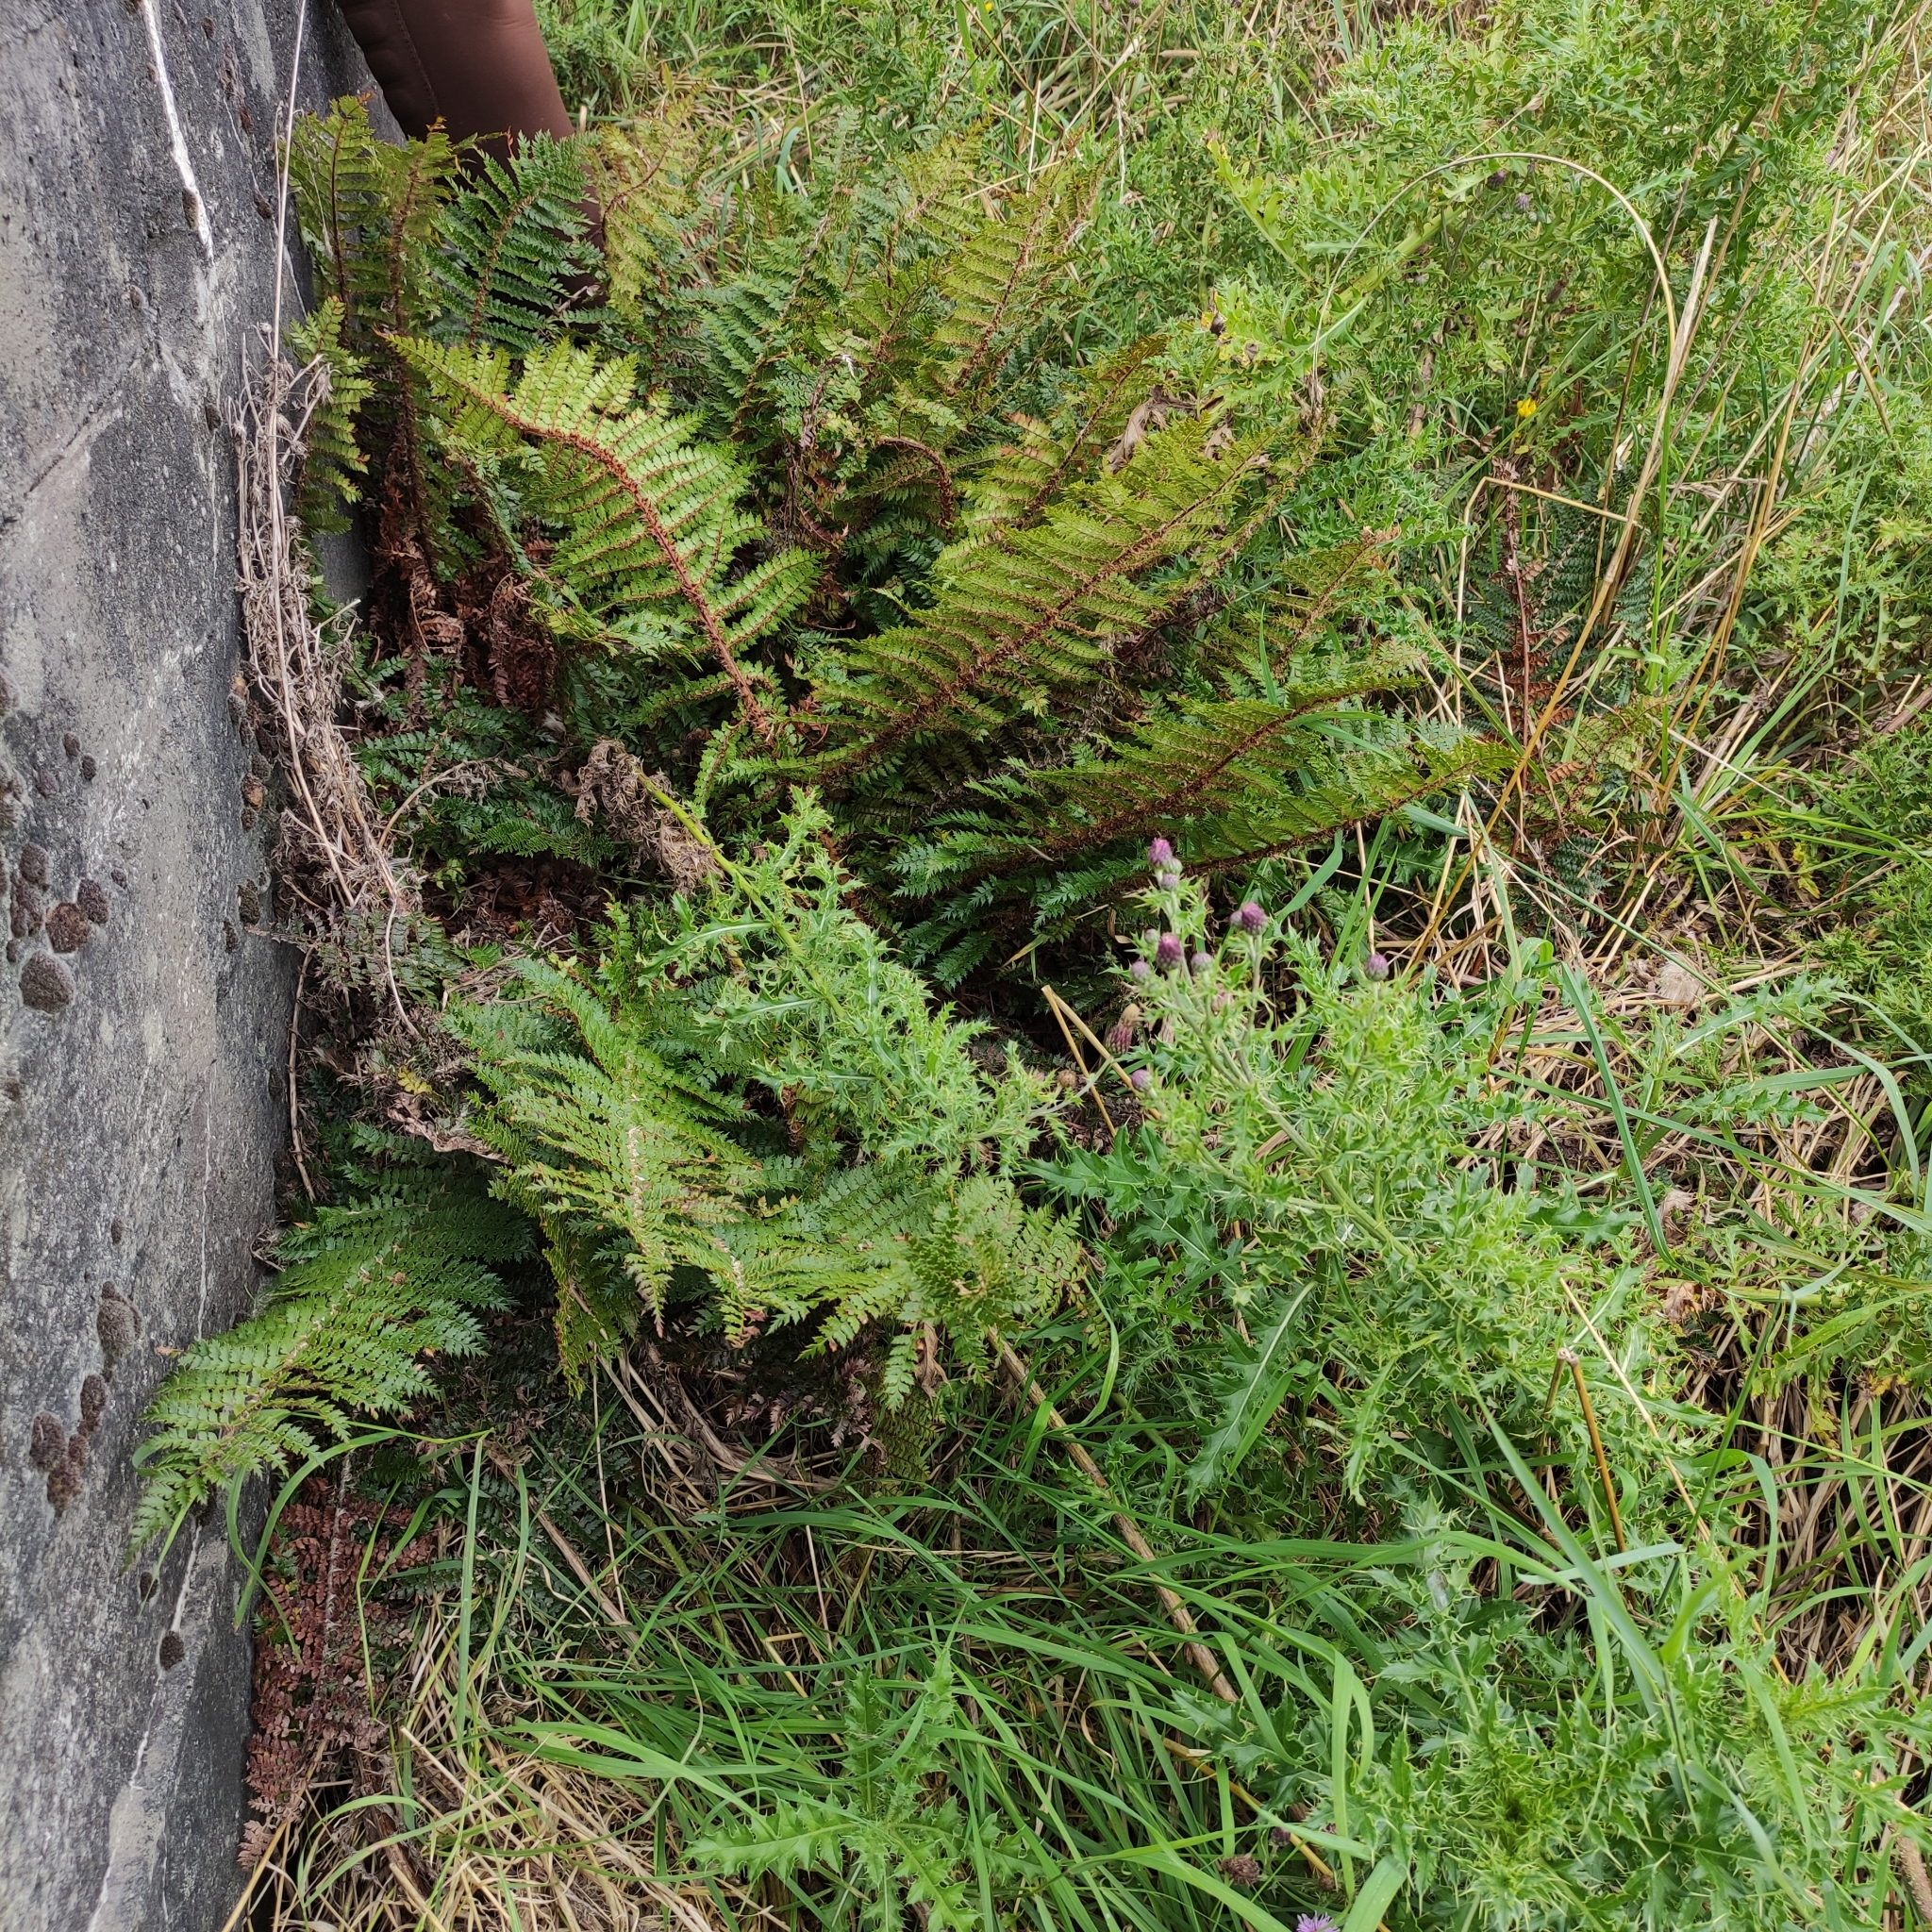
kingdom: Plantae
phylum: Tracheophyta
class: Polypodiopsida
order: Polypodiales
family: Dryopteridaceae
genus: Polystichum
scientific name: Polystichum vestitum
